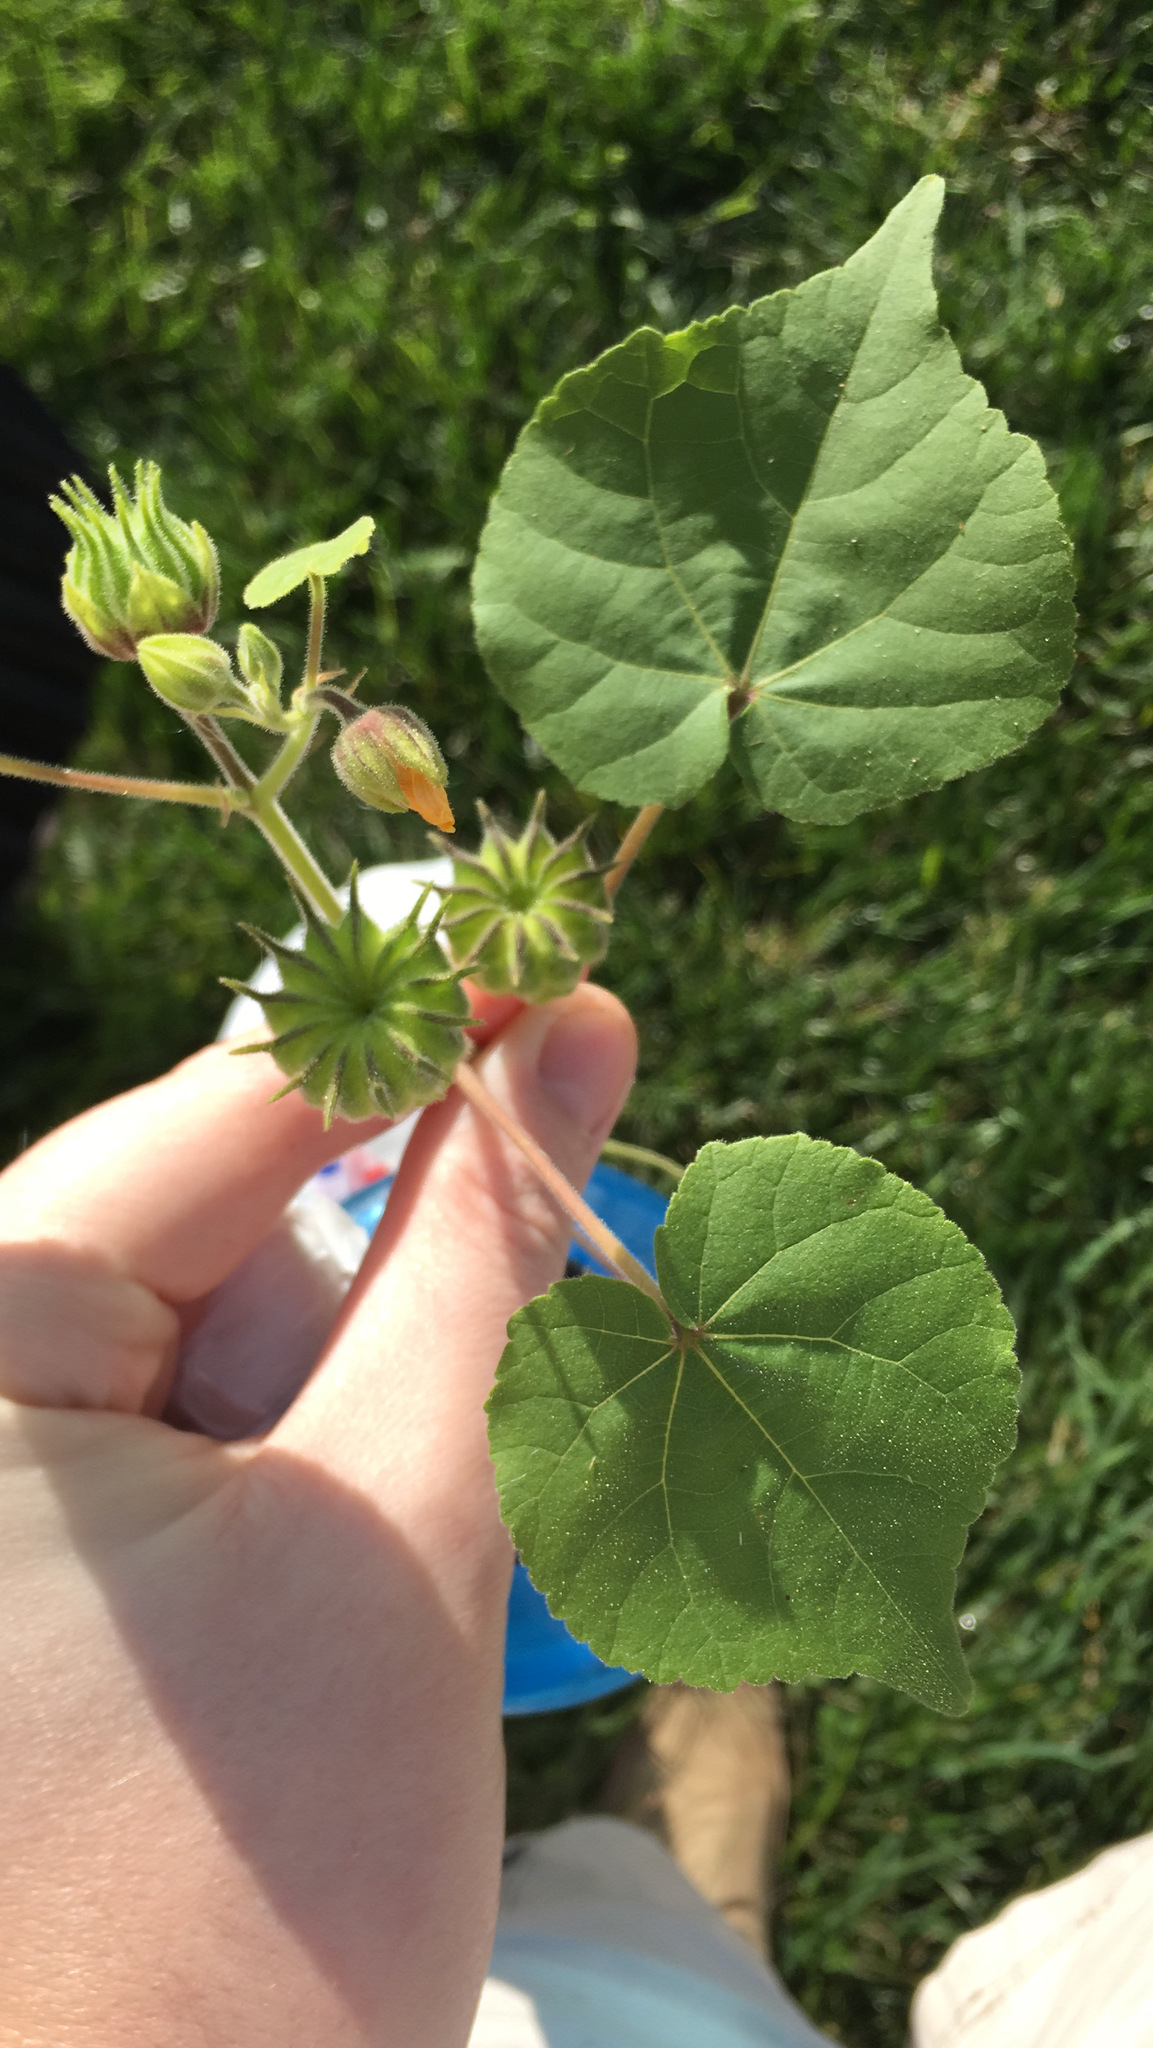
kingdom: Plantae
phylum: Tracheophyta
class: Magnoliopsida
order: Malvales
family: Malvaceae
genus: Abutilon
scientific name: Abutilon theophrasti
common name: Velvetleaf
